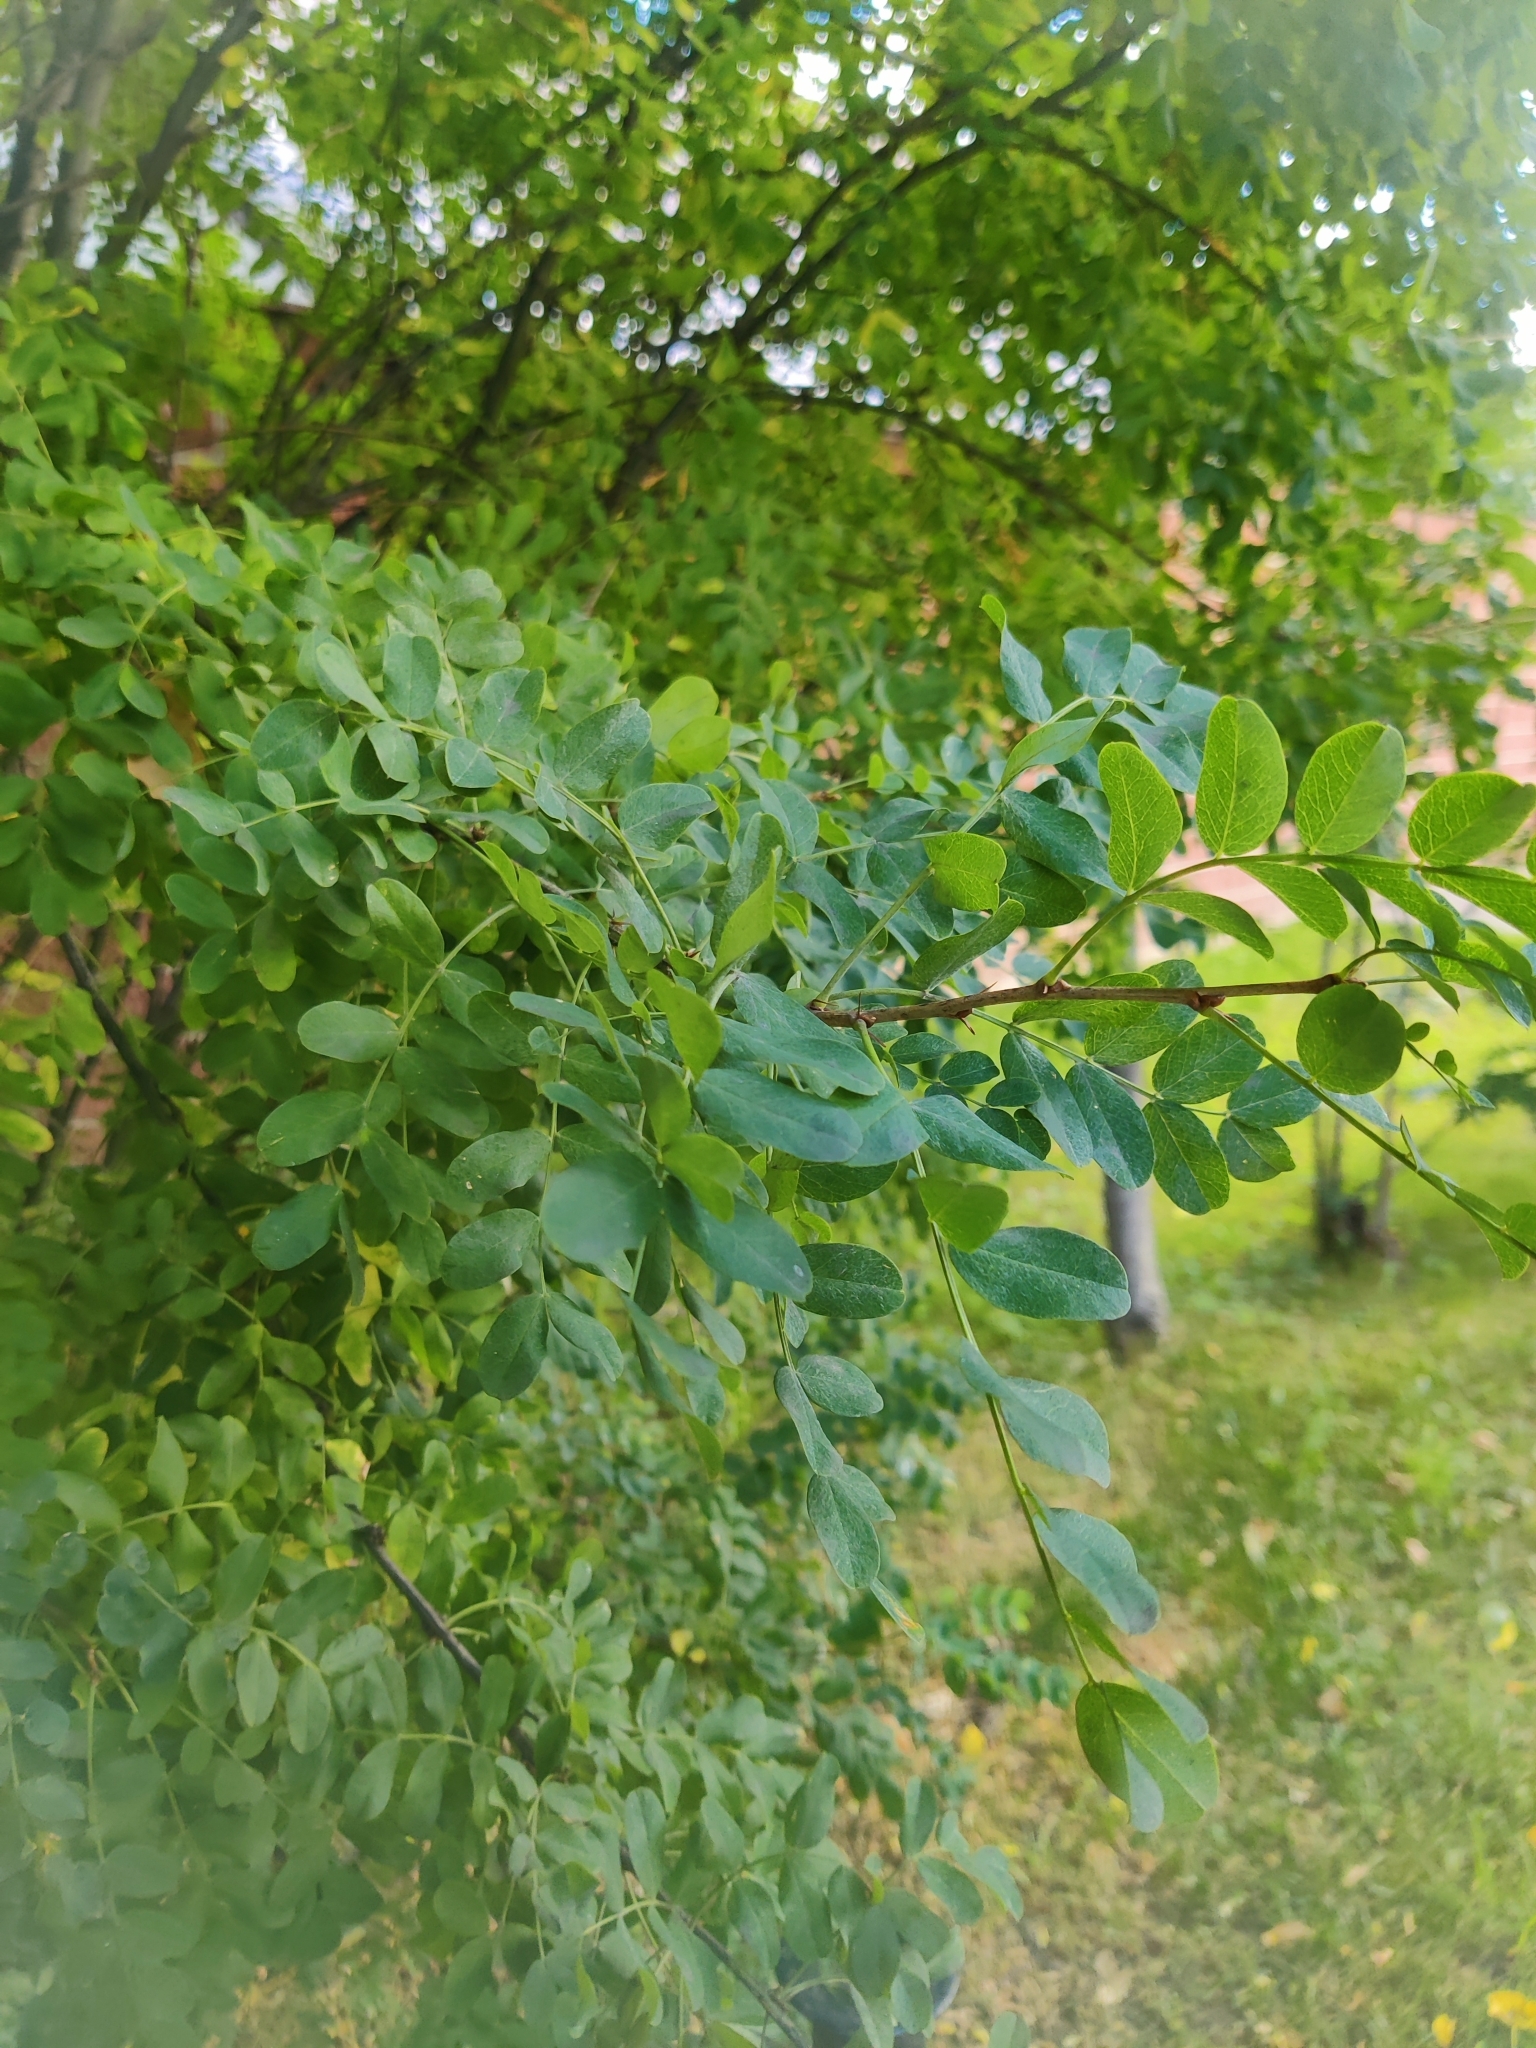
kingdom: Plantae
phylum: Tracheophyta
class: Magnoliopsida
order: Fabales
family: Fabaceae
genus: Caragana
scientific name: Caragana arborescens
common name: Siberian peashrub
